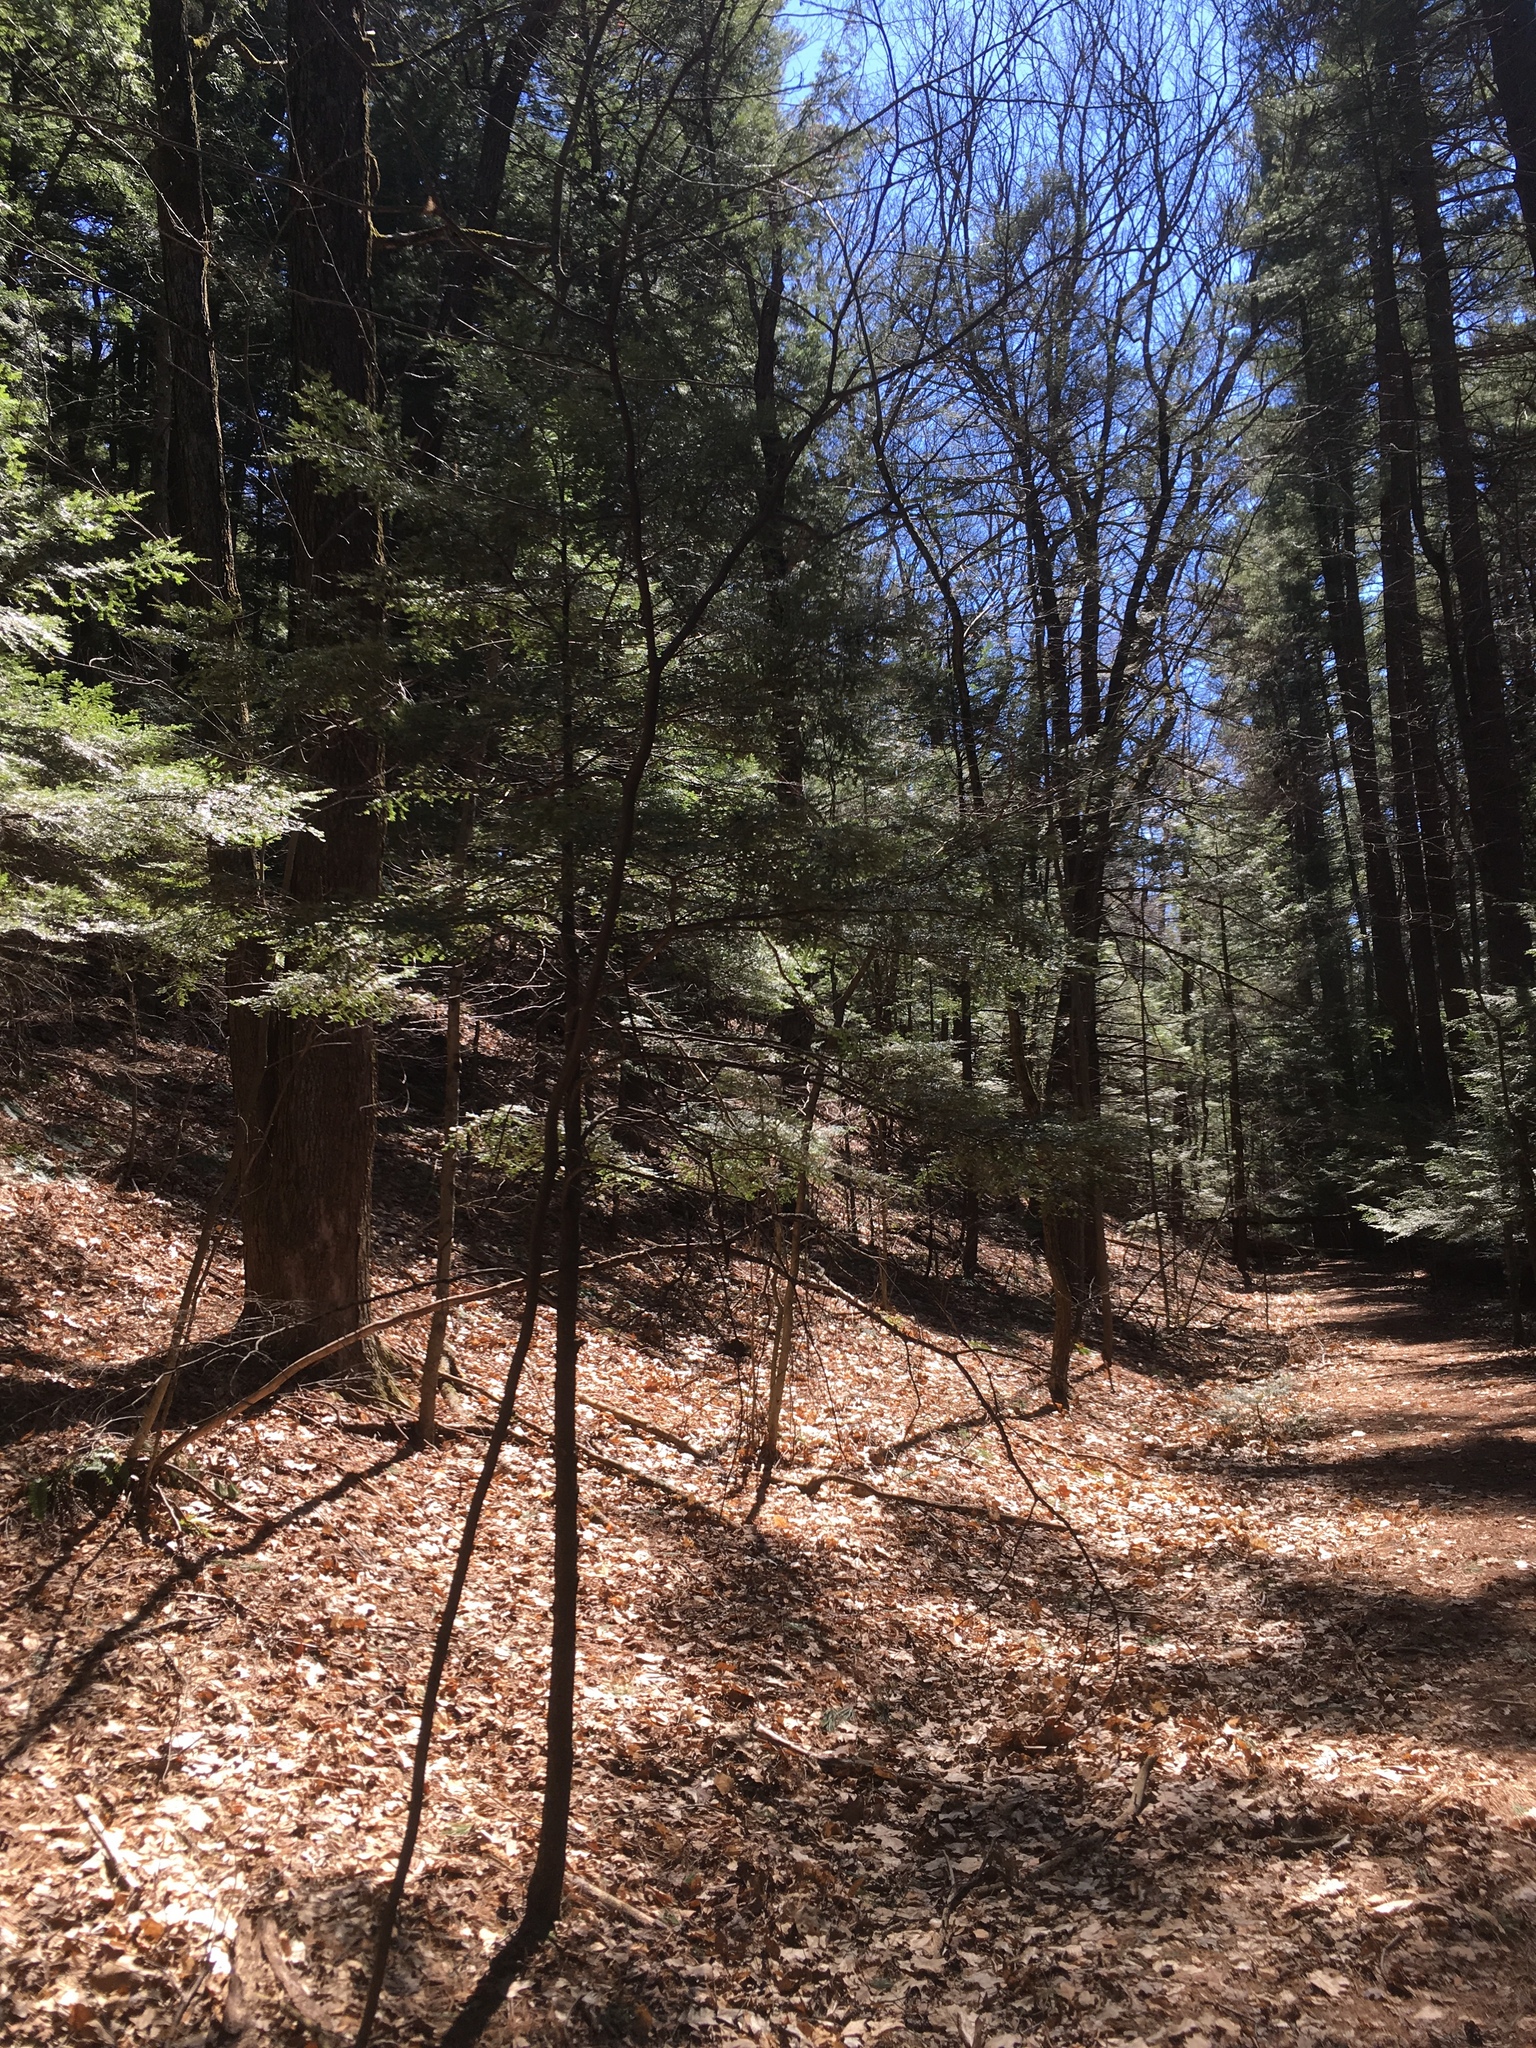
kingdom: Plantae
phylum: Tracheophyta
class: Magnoliopsida
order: Saxifragales
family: Hamamelidaceae
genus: Hamamelis
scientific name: Hamamelis virginiana
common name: Witch-hazel
